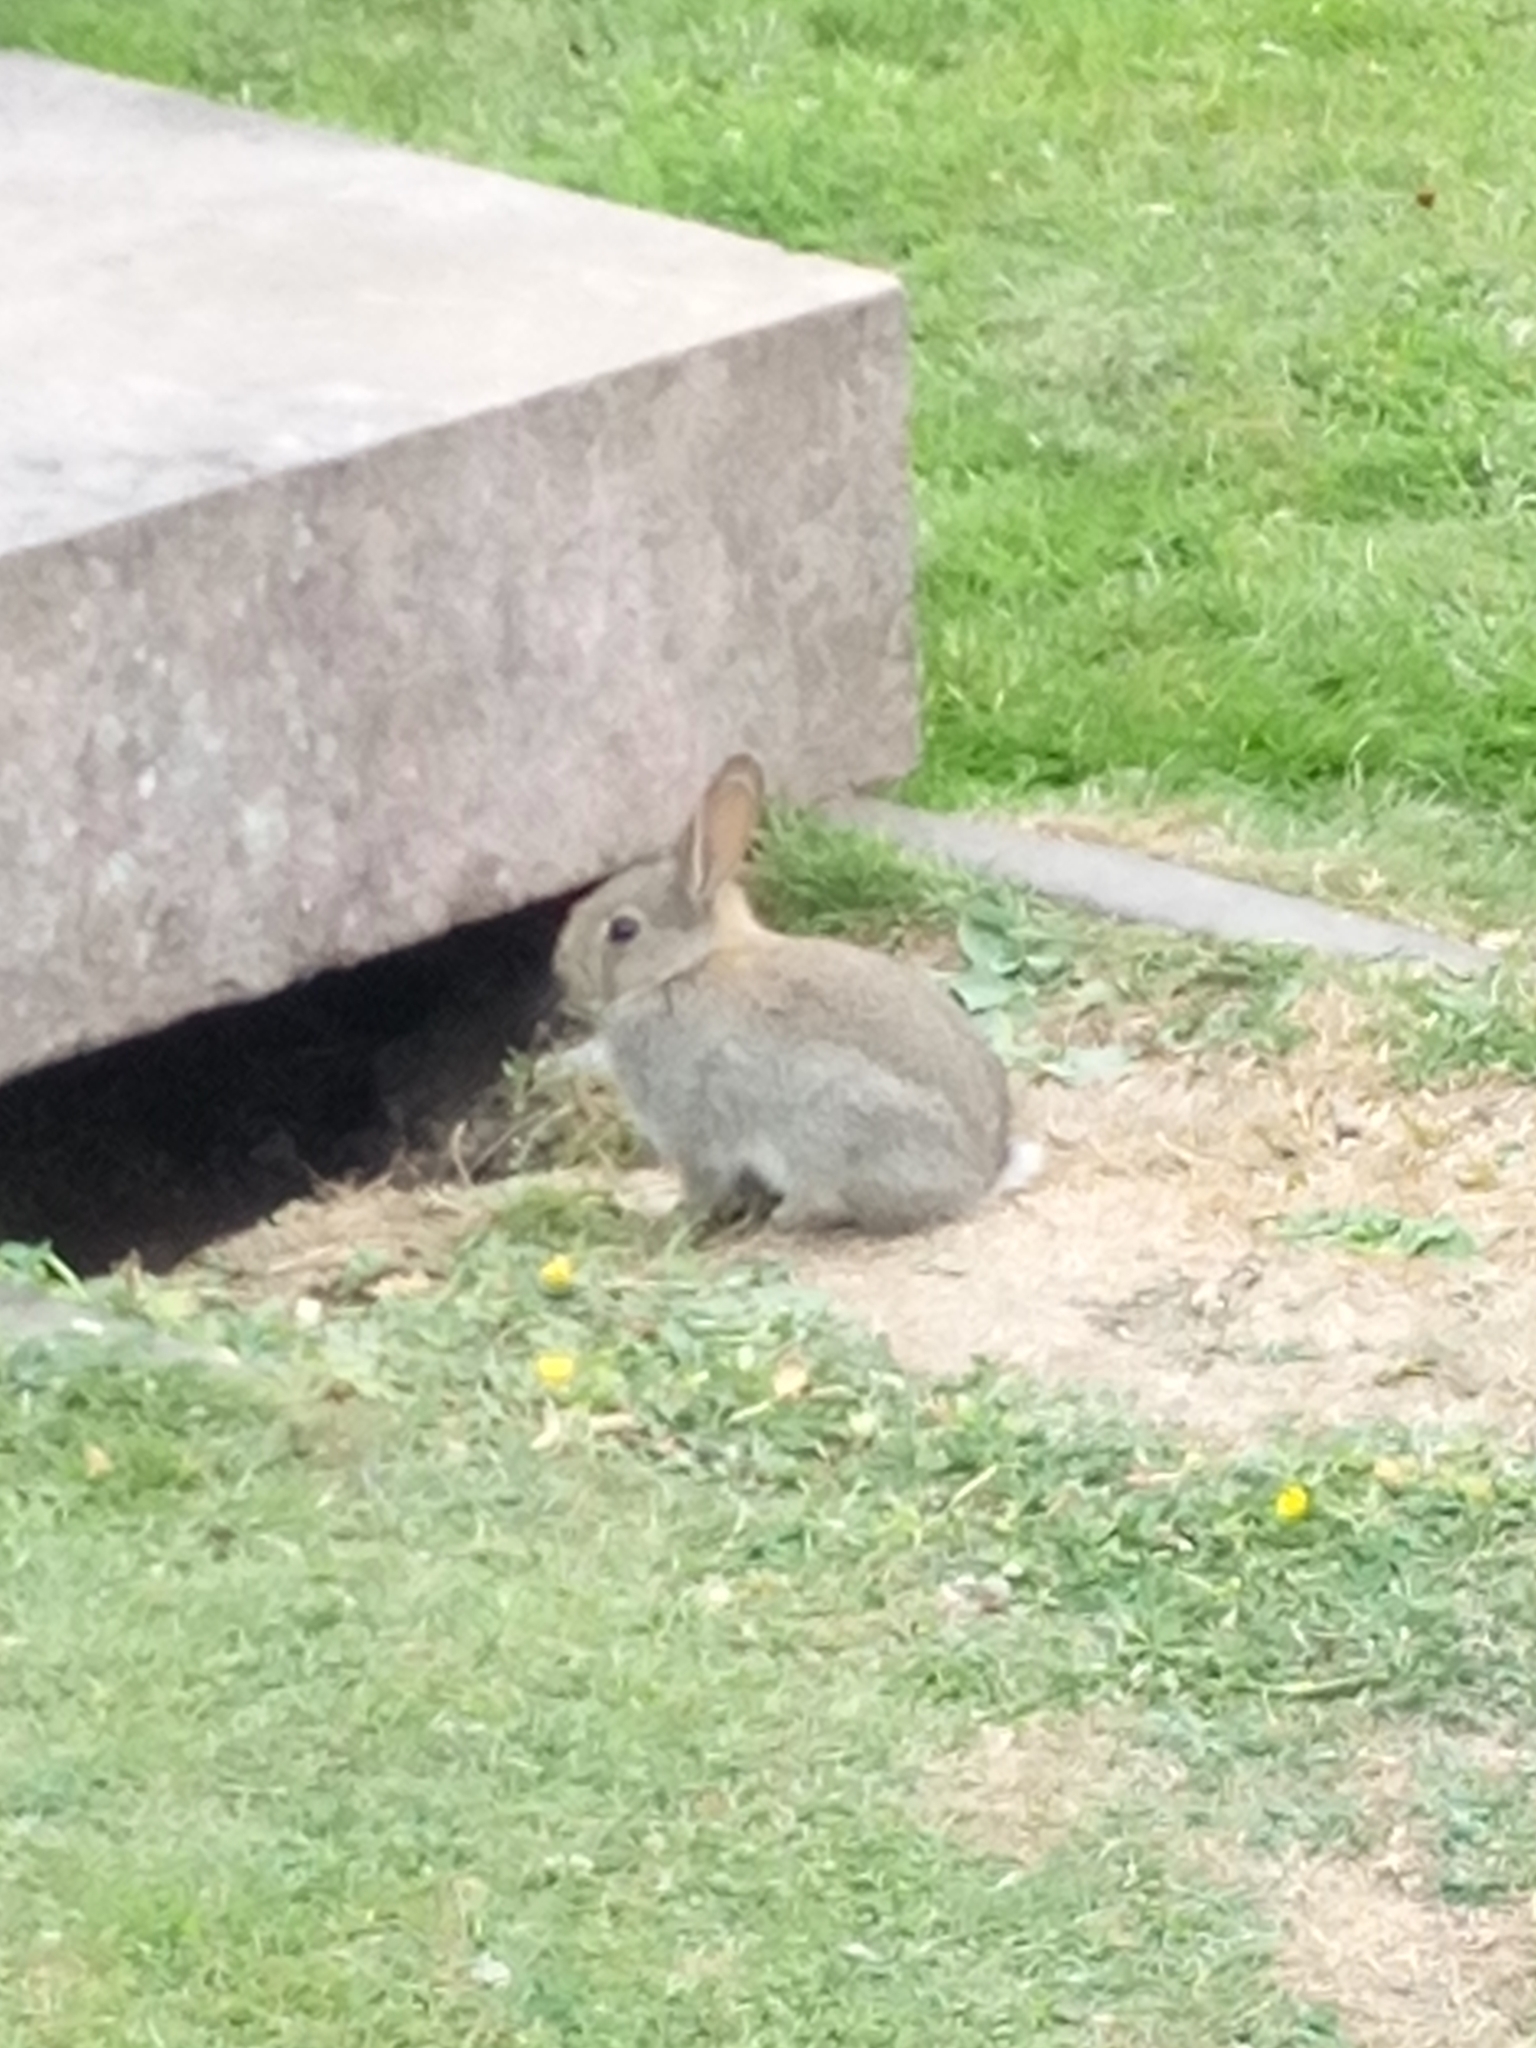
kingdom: Animalia
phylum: Chordata
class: Mammalia
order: Lagomorpha
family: Leporidae
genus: Oryctolagus
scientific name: Oryctolagus cuniculus
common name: European rabbit
